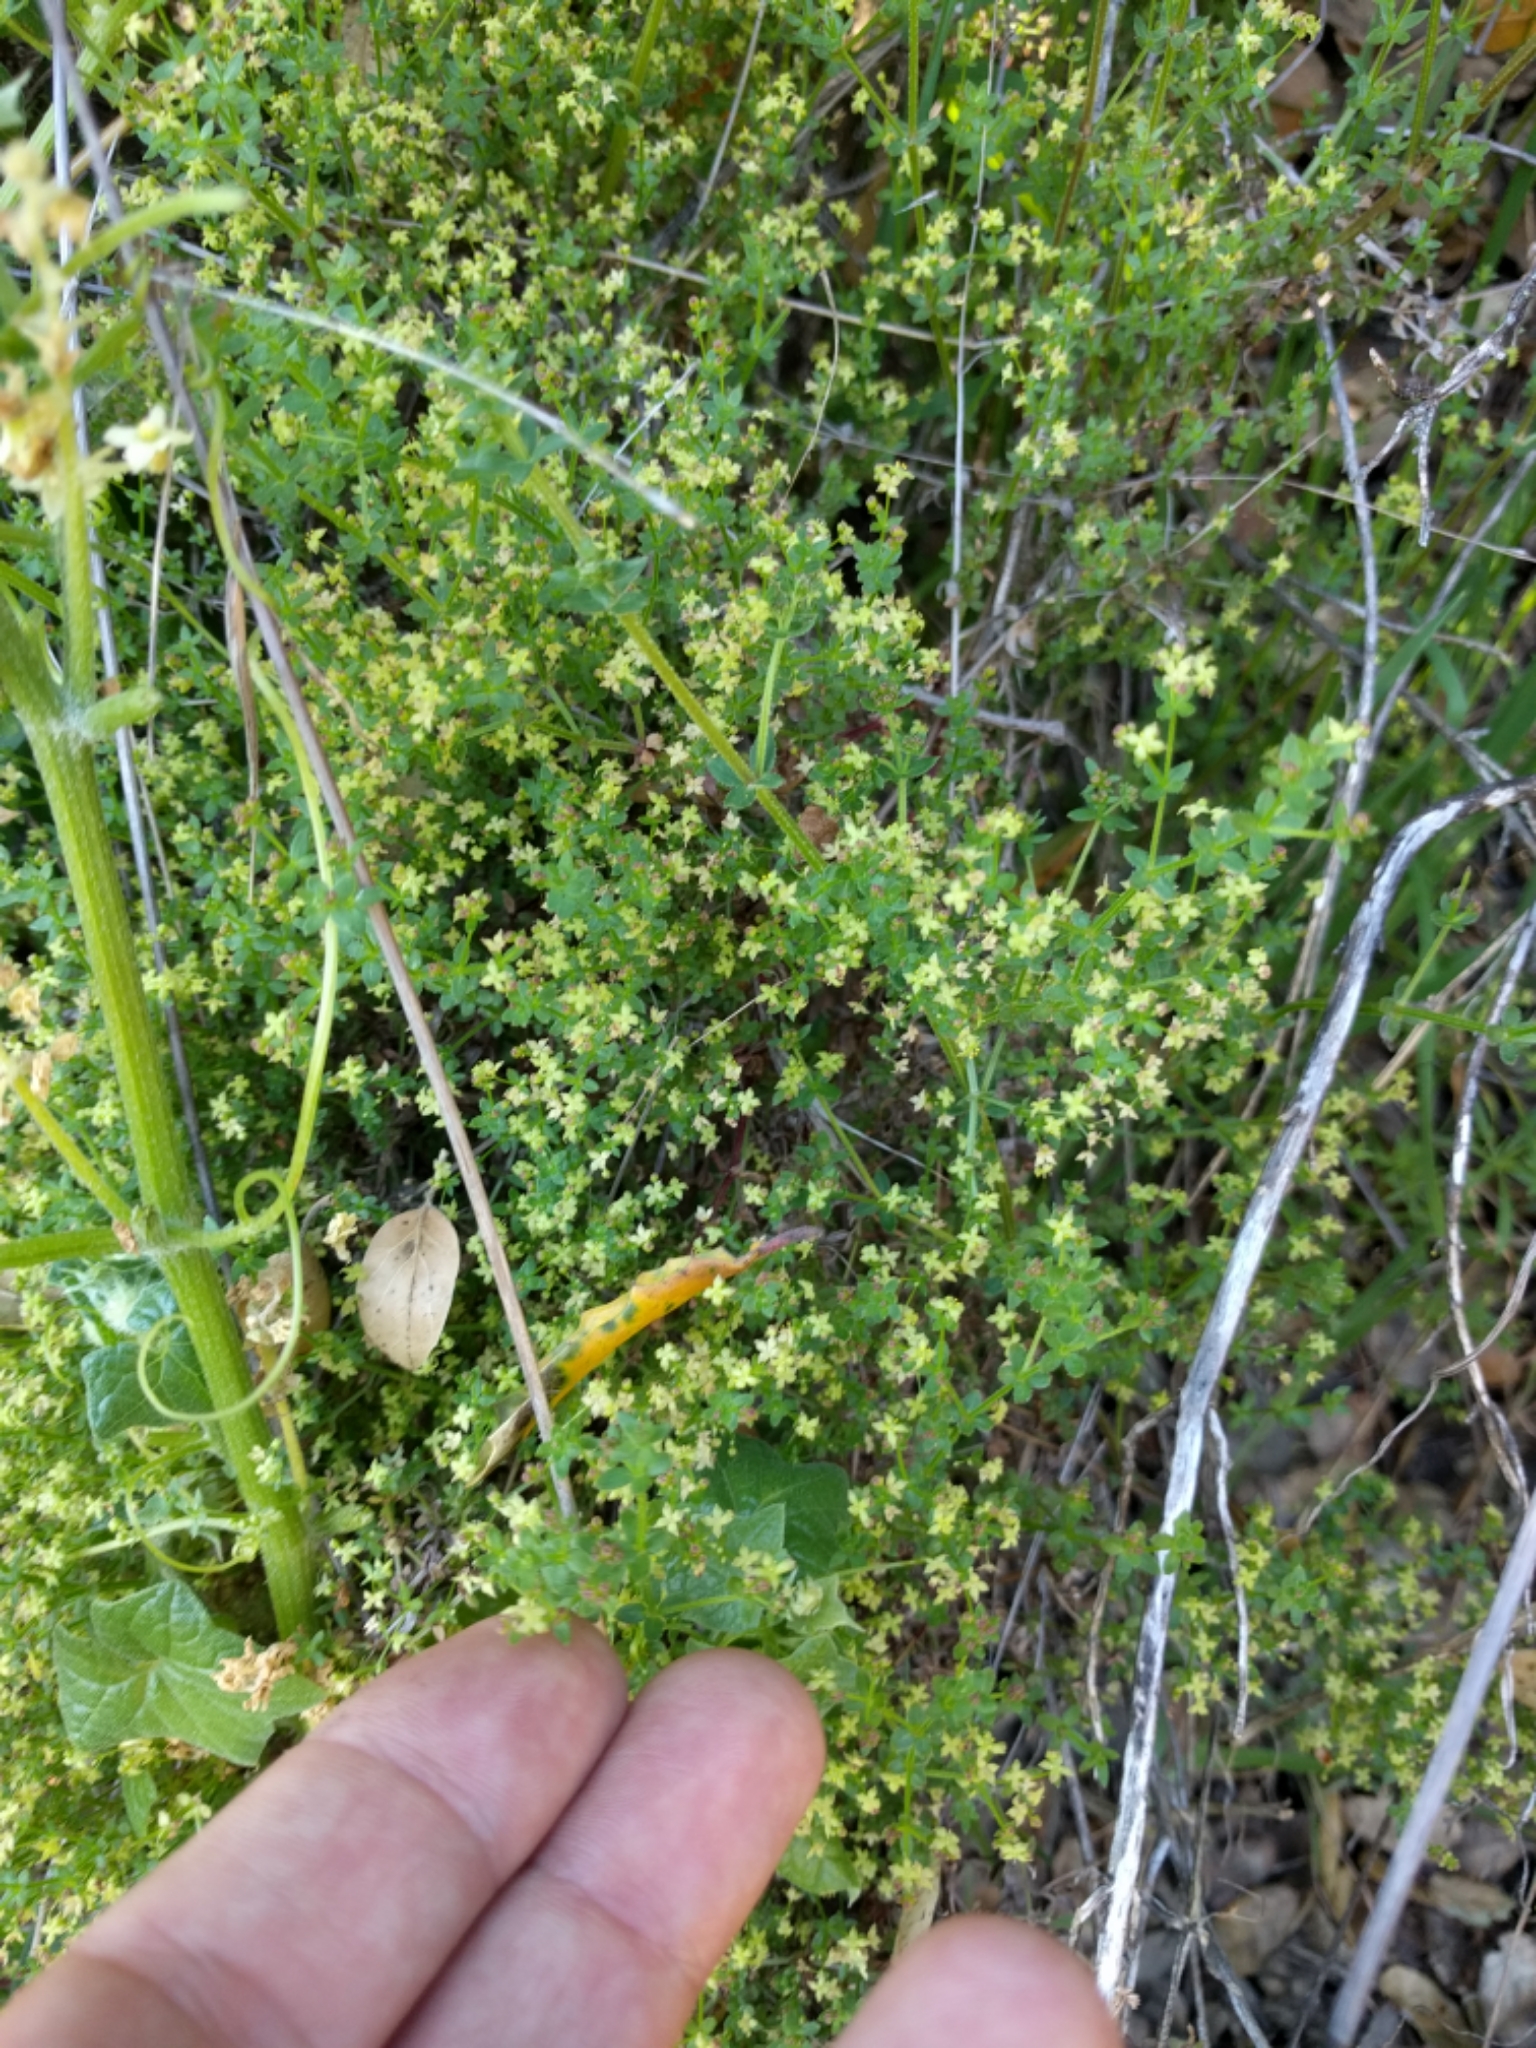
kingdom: Plantae
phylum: Tracheophyta
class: Magnoliopsida
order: Gentianales
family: Rubiaceae
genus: Galium
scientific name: Galium porrigens
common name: Climbing bedstraw
